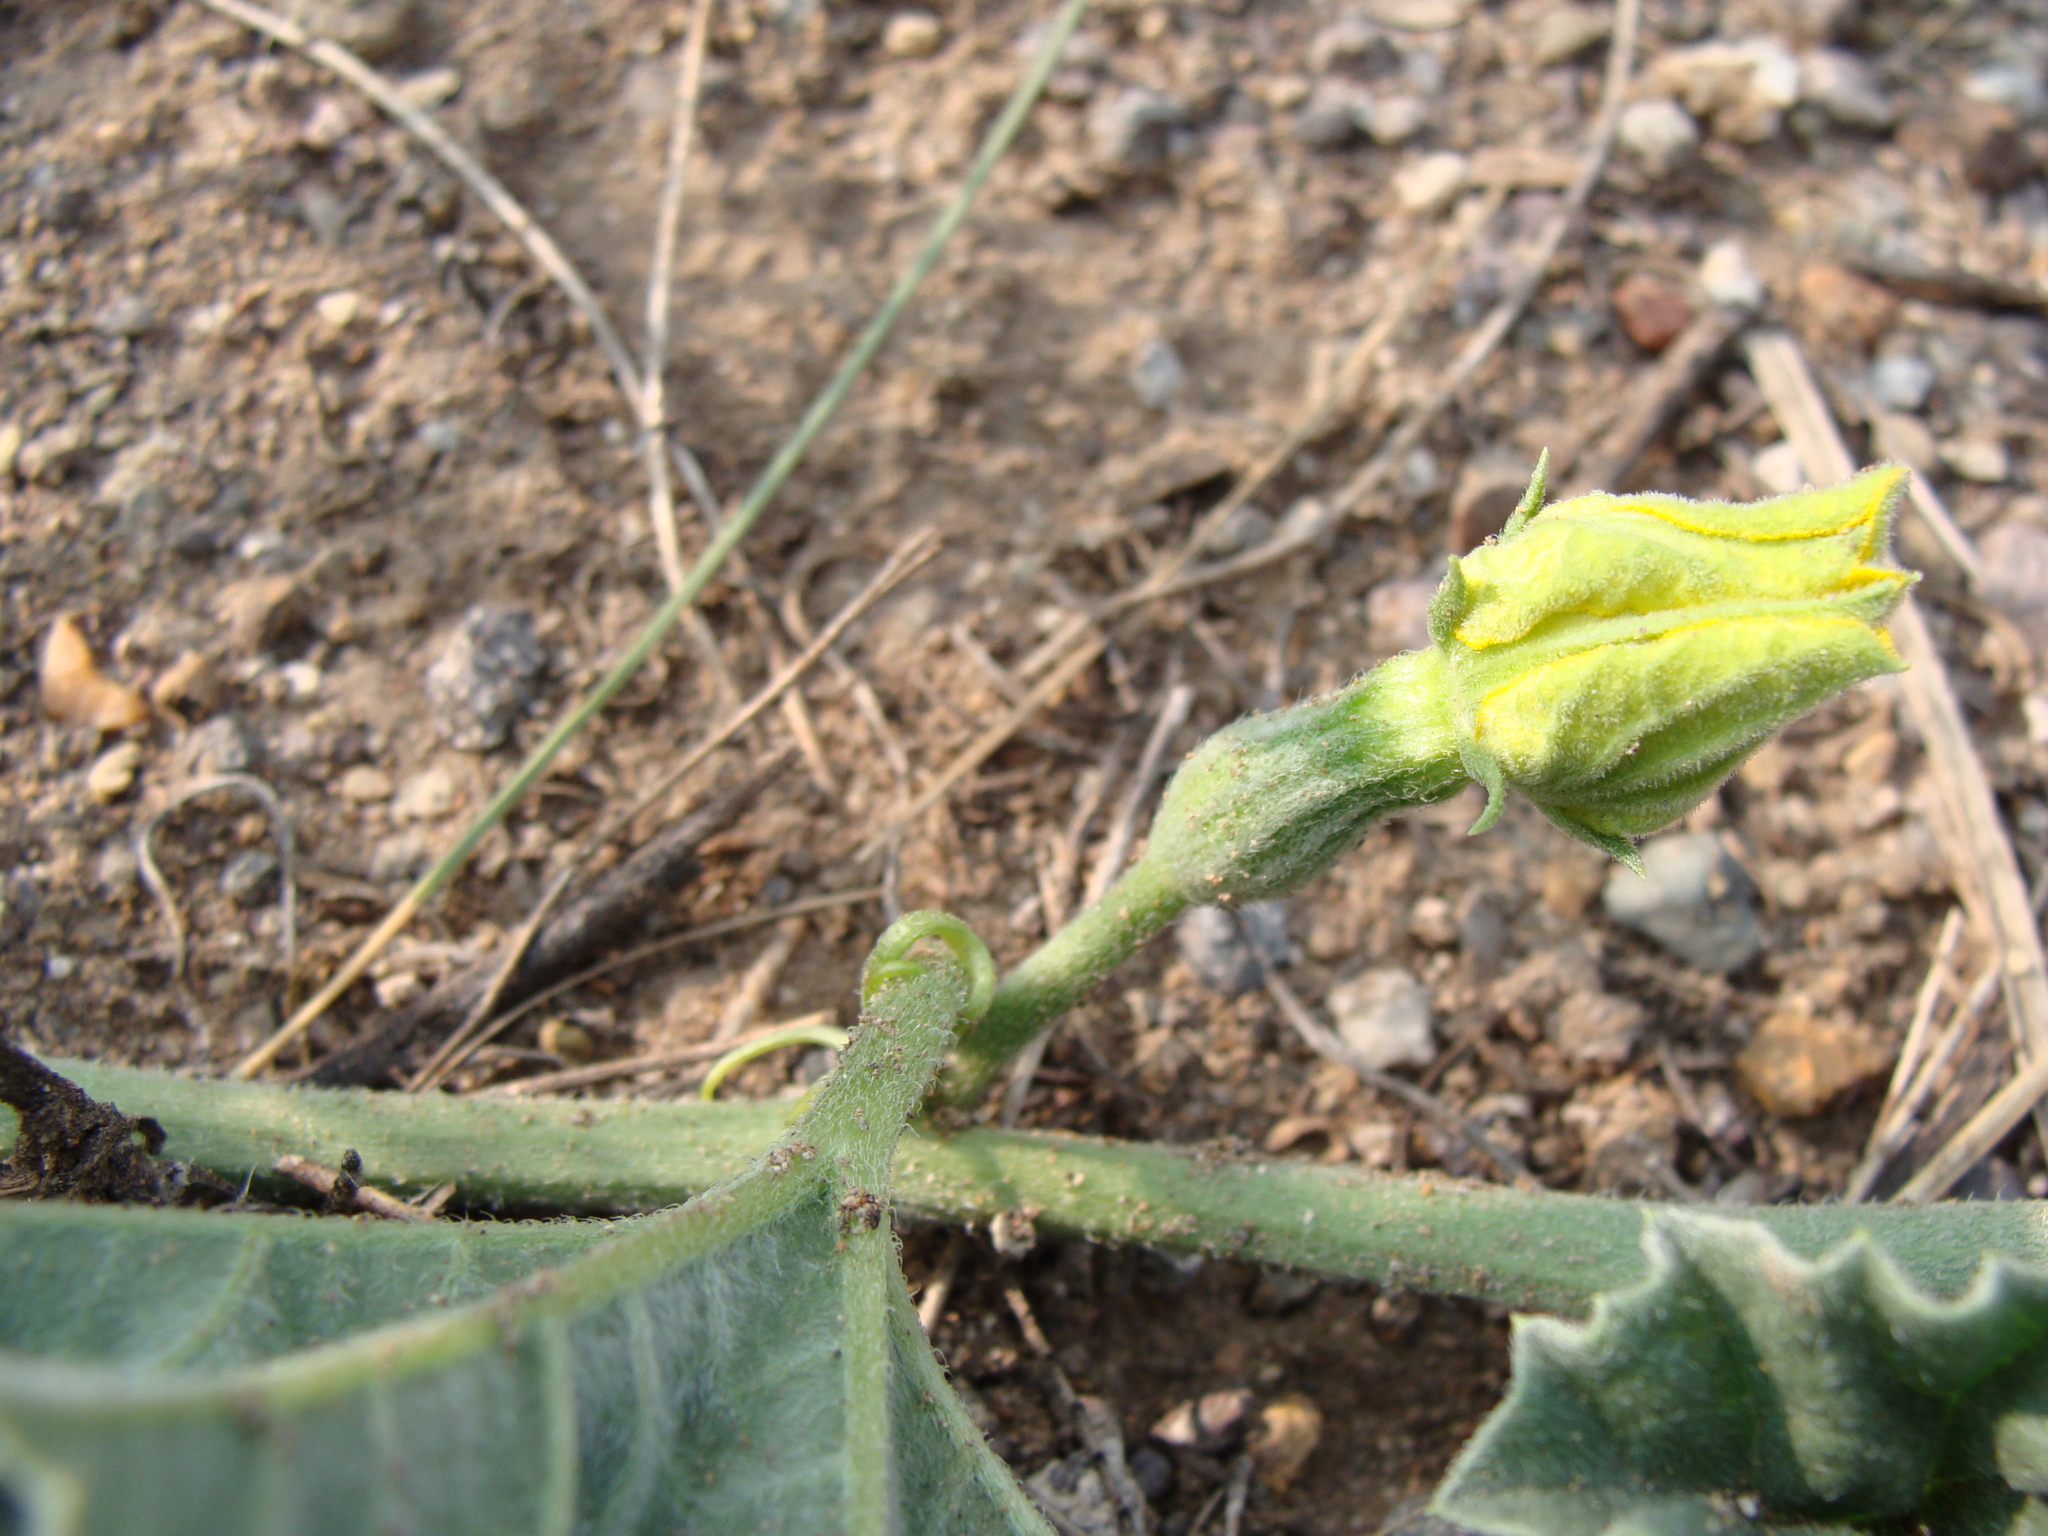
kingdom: Plantae
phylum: Tracheophyta
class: Magnoliopsida
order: Cucurbitales
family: Cucurbitaceae
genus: Apodanthera
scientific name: Apodanthera undulata
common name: Melon-loco
